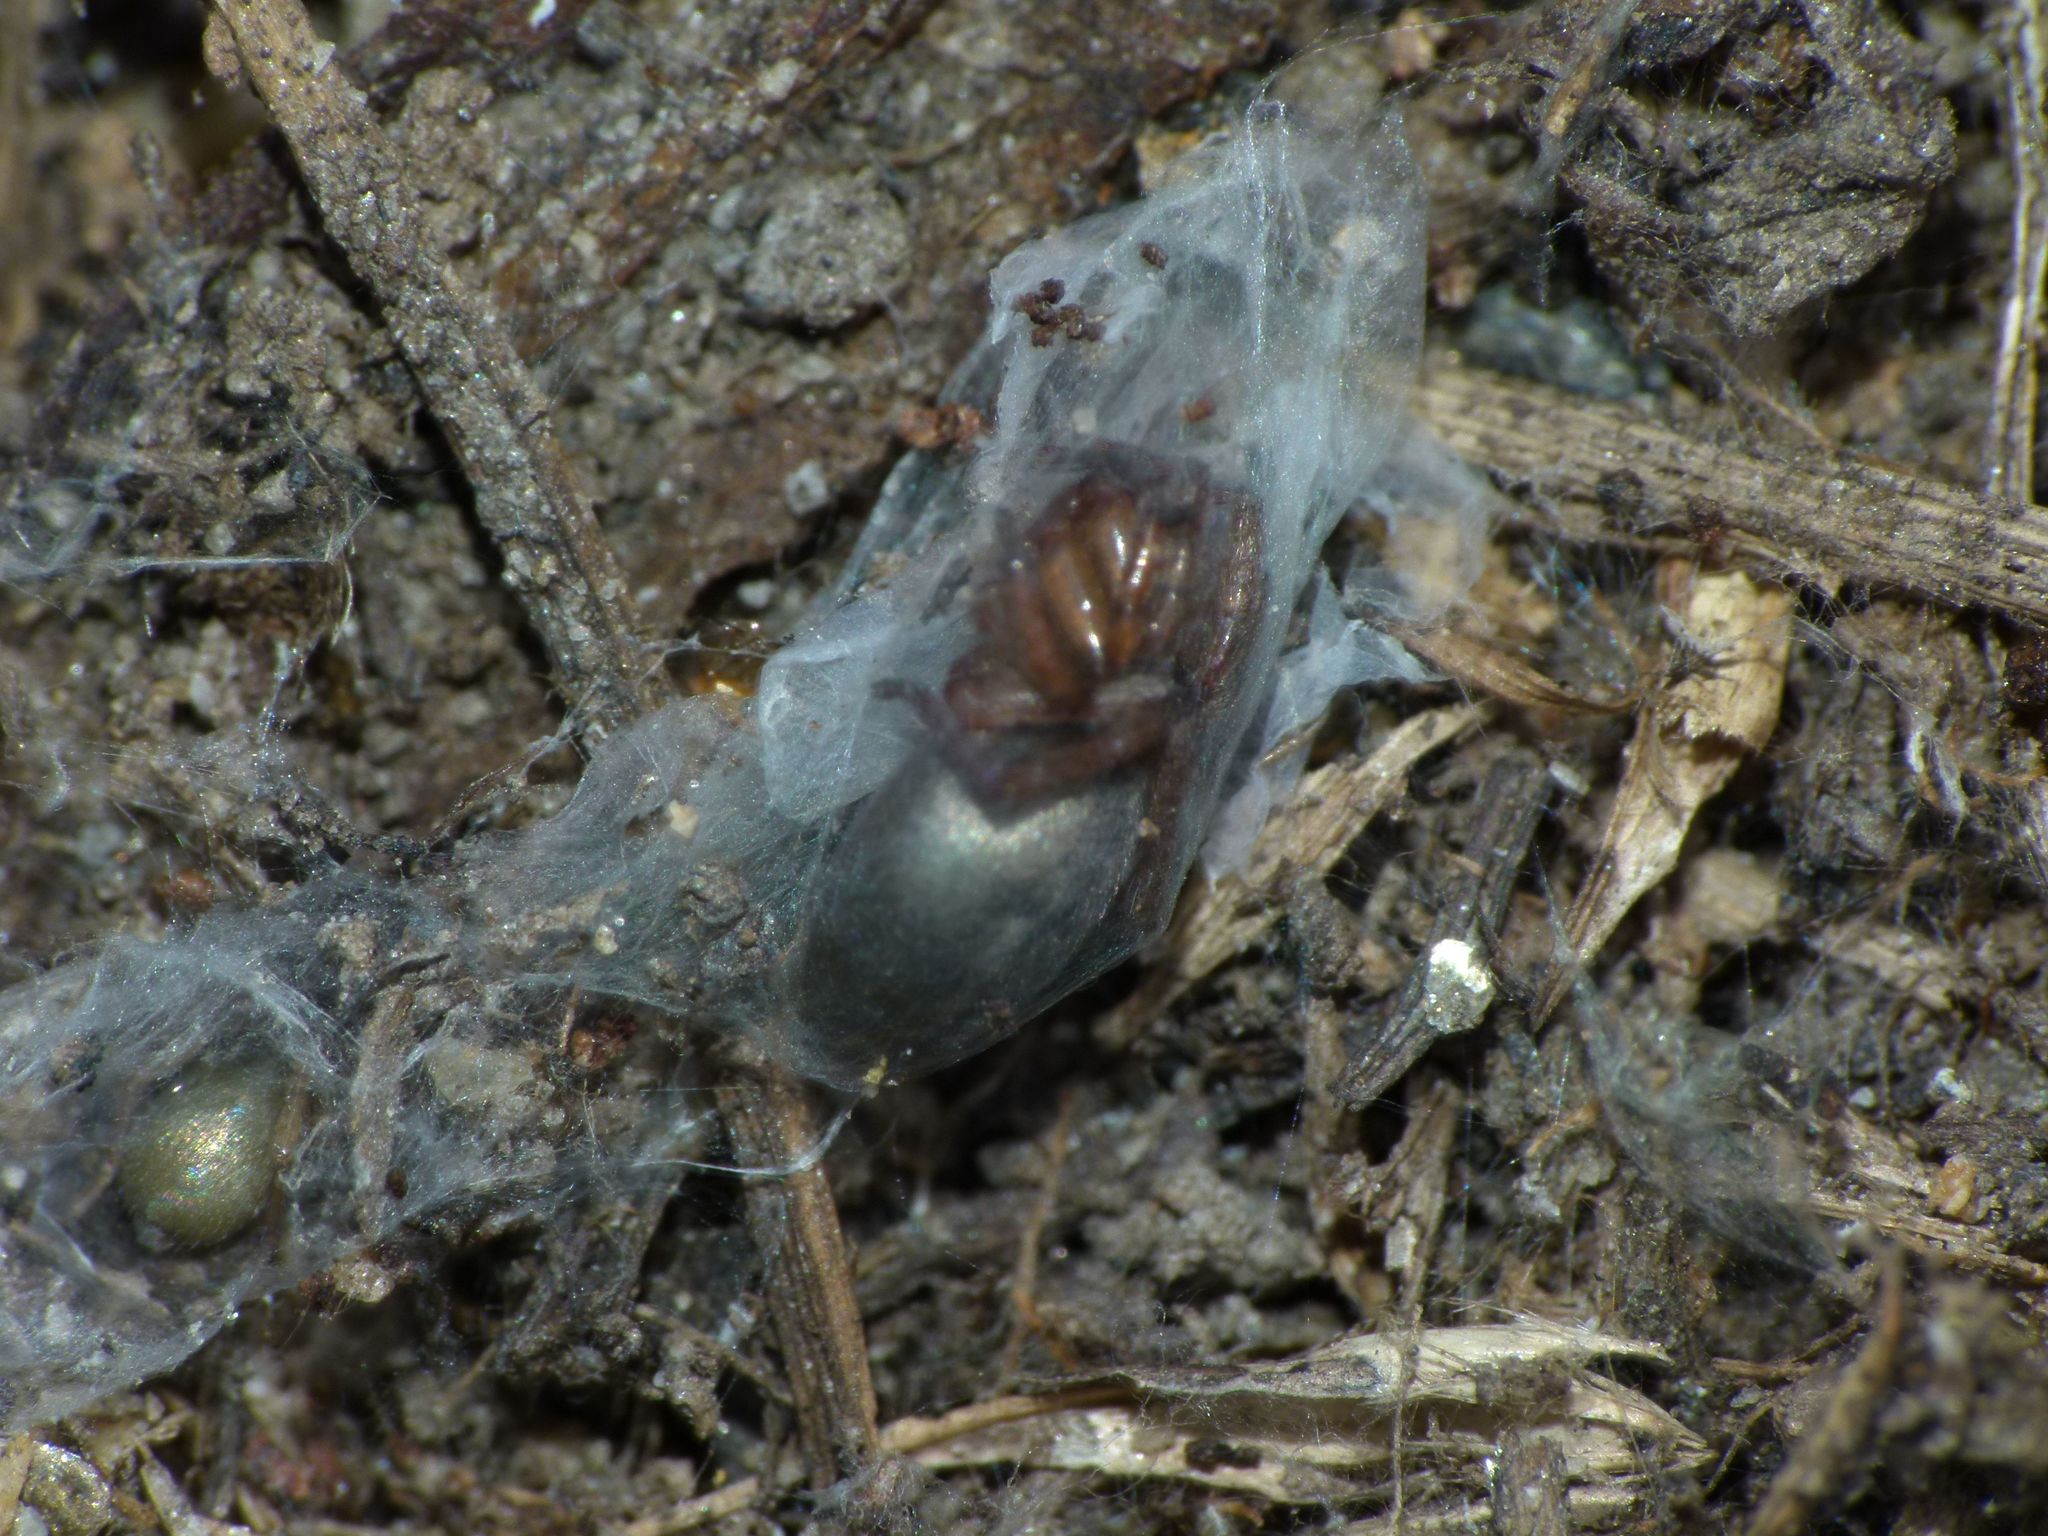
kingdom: Animalia
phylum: Arthropoda
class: Arachnida
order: Araneae
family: Gnaphosidae
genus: Anzacia
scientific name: Anzacia gemmea
